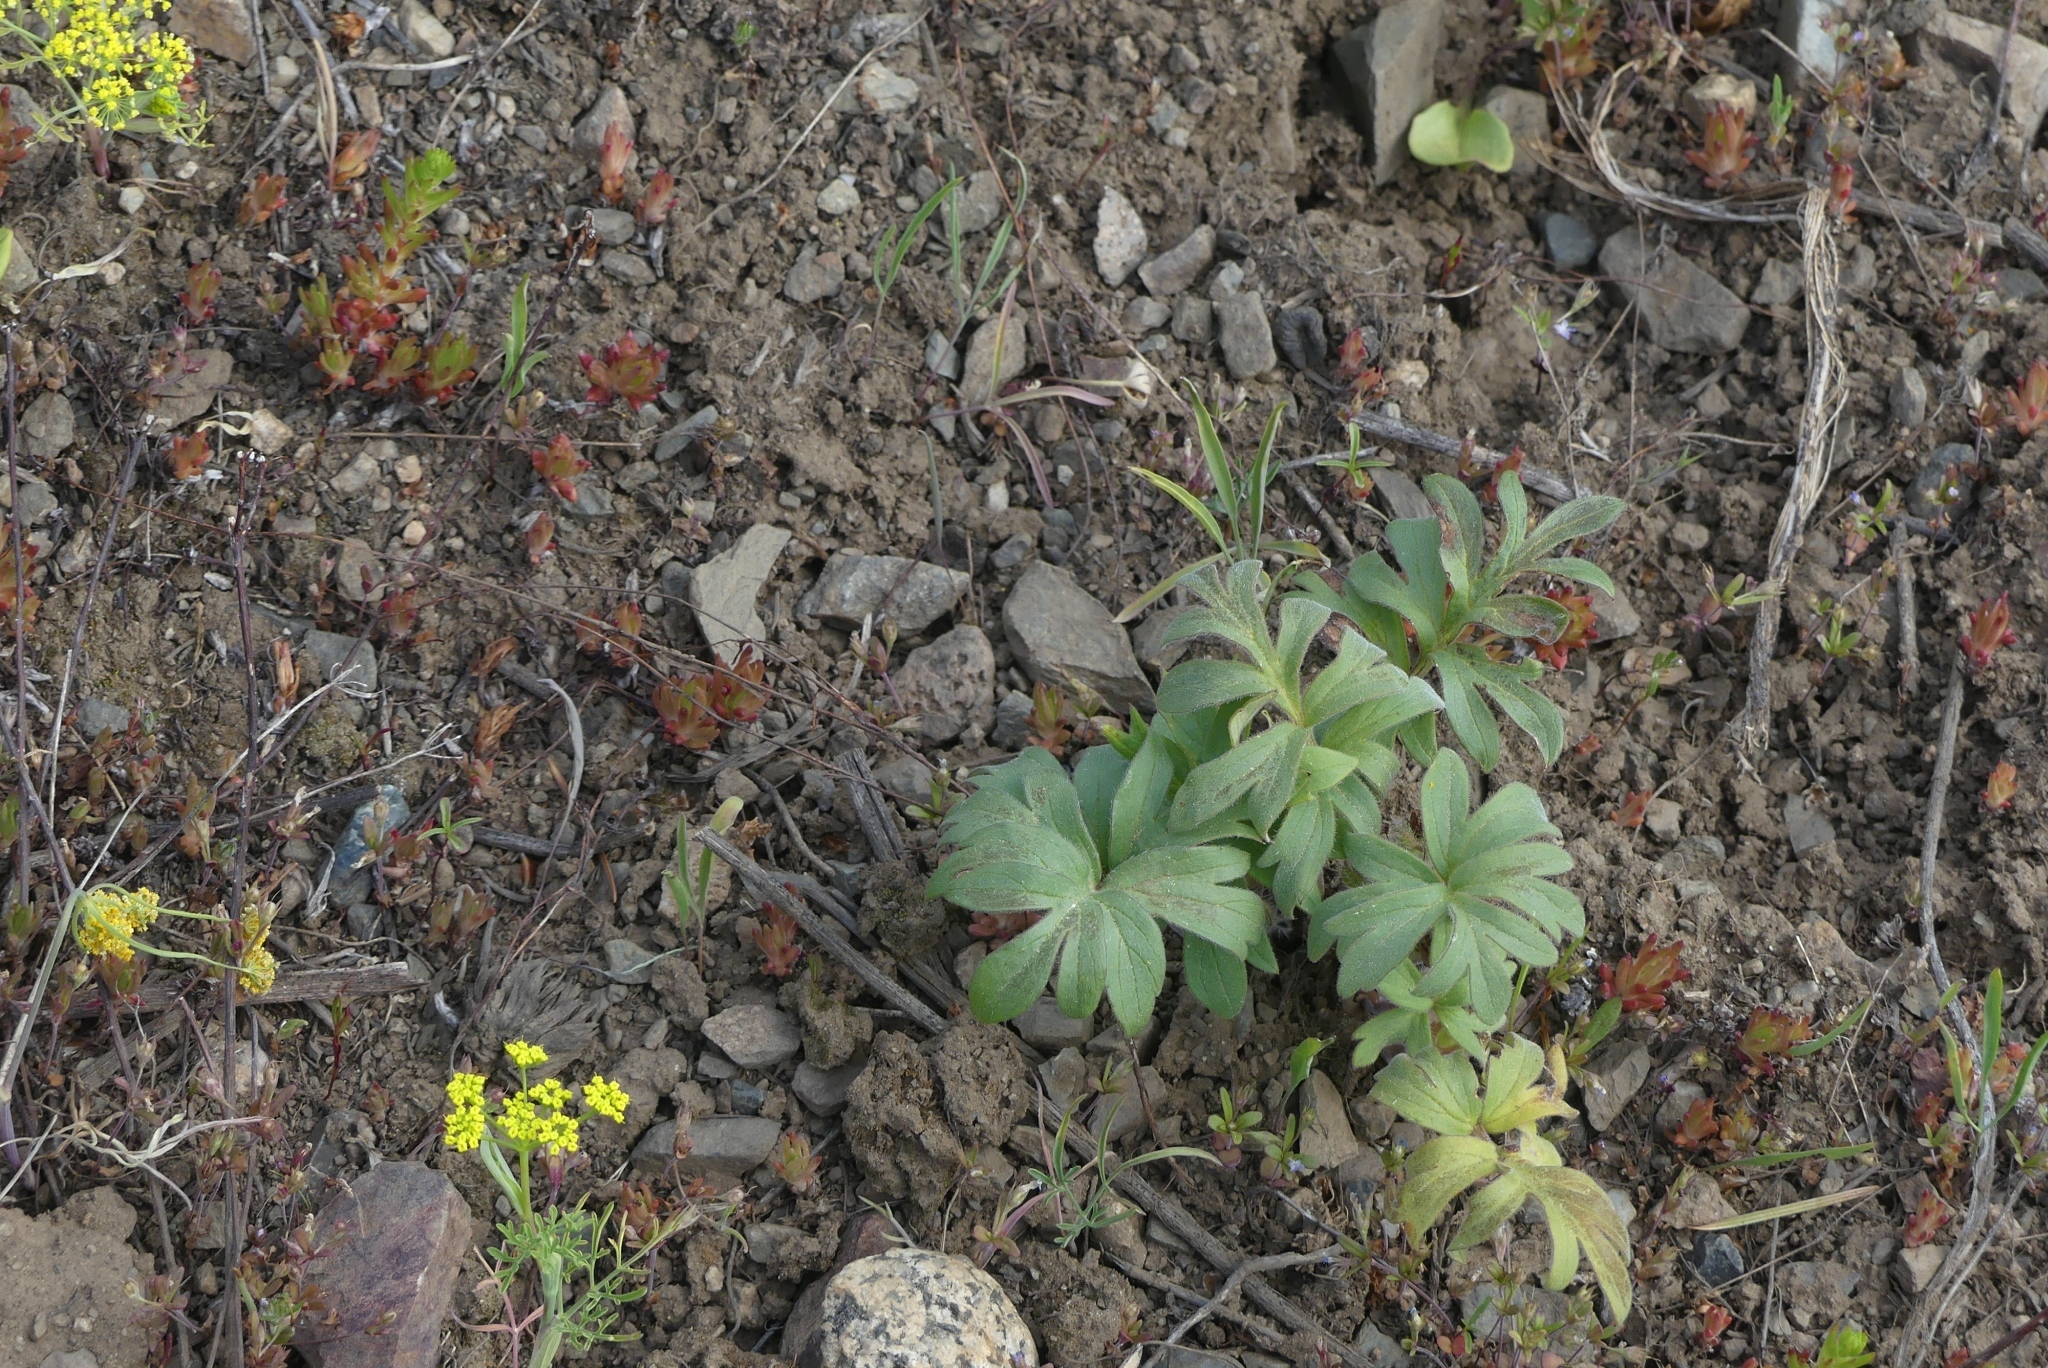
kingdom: Plantae
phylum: Tracheophyta
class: Magnoliopsida
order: Boraginales
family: Hydrophyllaceae
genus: Hydrophyllum
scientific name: Hydrophyllum capitatum
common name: Woollen-breeches
